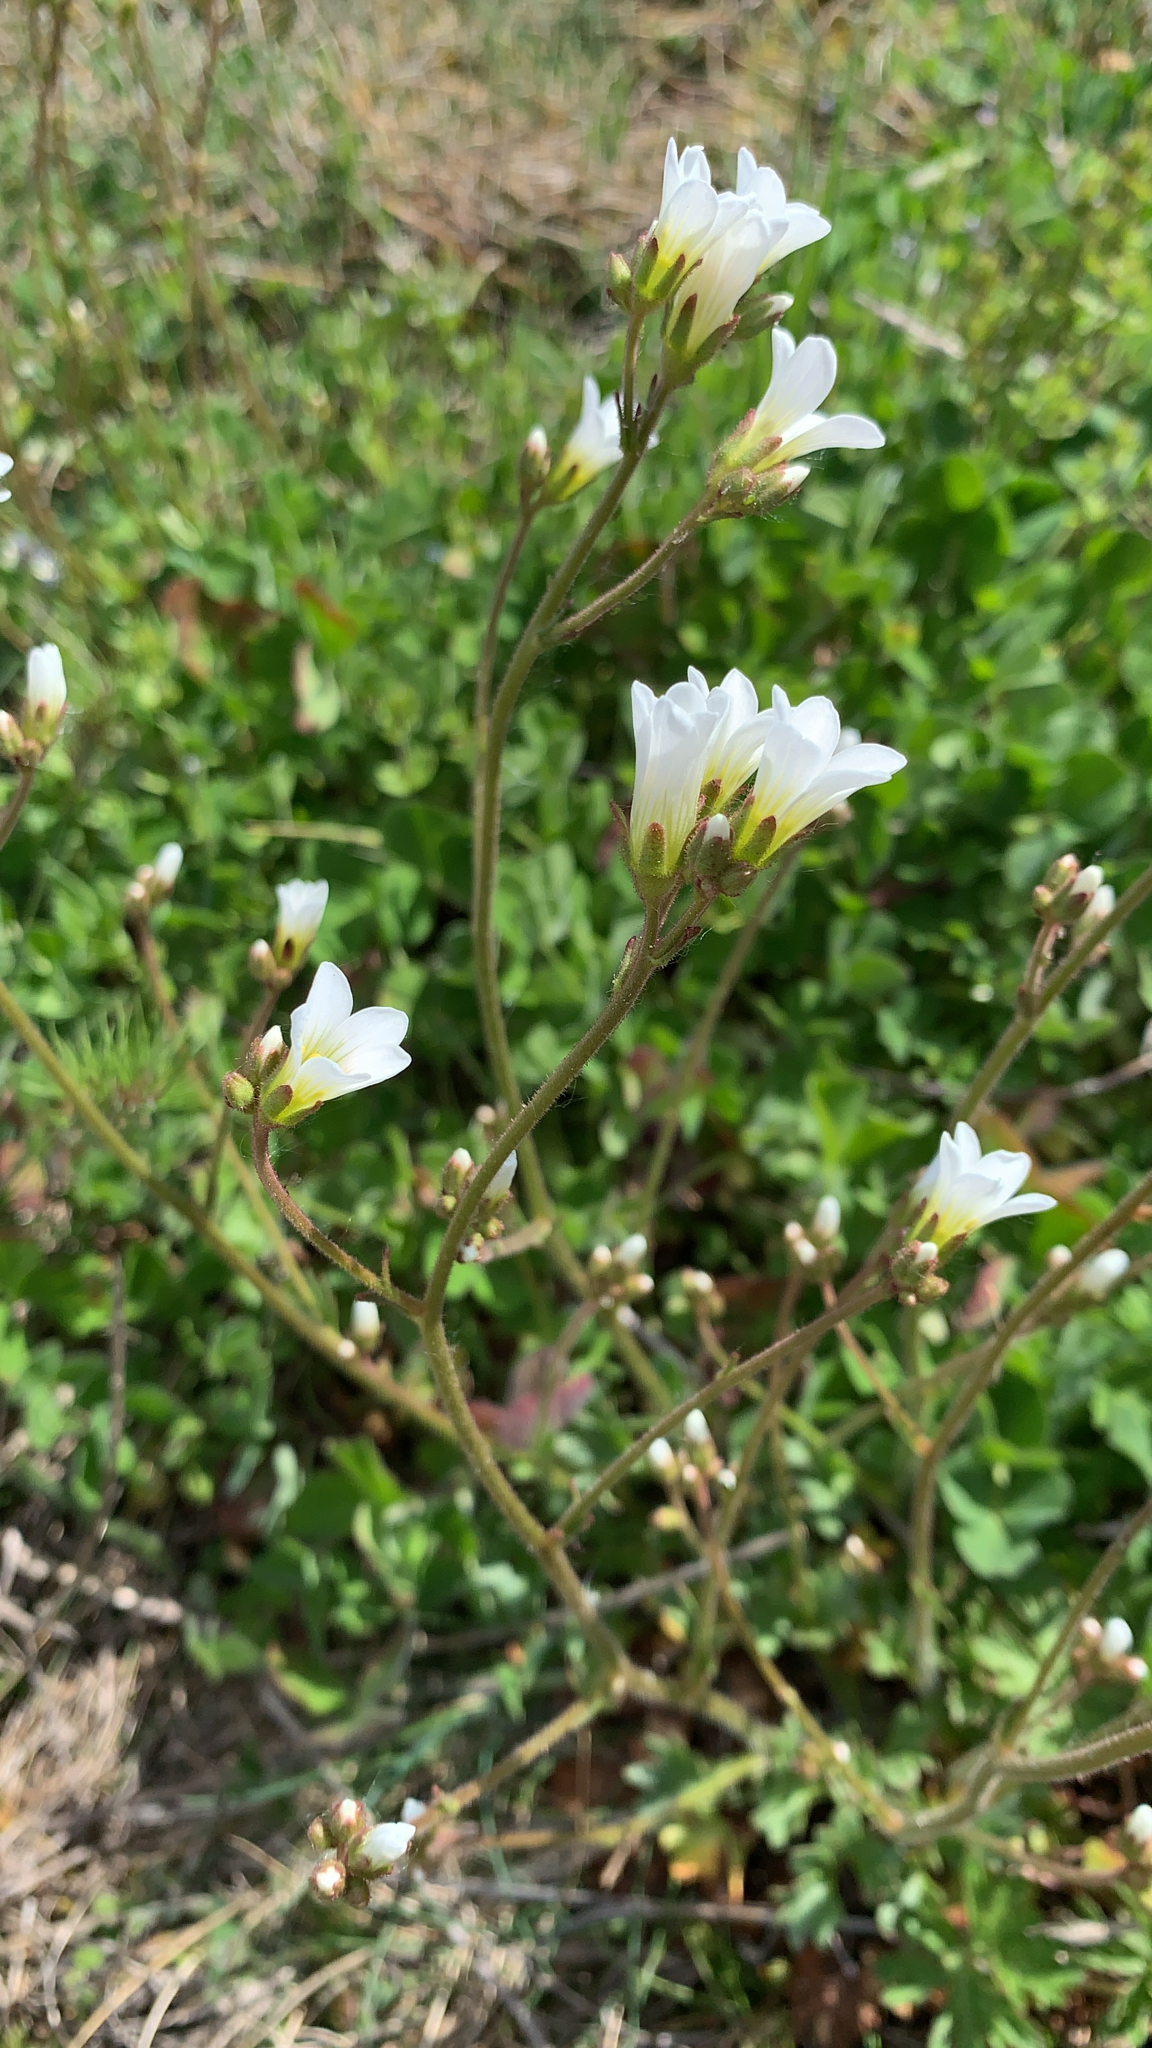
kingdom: Plantae
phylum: Tracheophyta
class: Magnoliopsida
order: Saxifragales
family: Saxifragaceae
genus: Saxifraga
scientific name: Saxifraga granulata
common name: Meadow saxifrage
